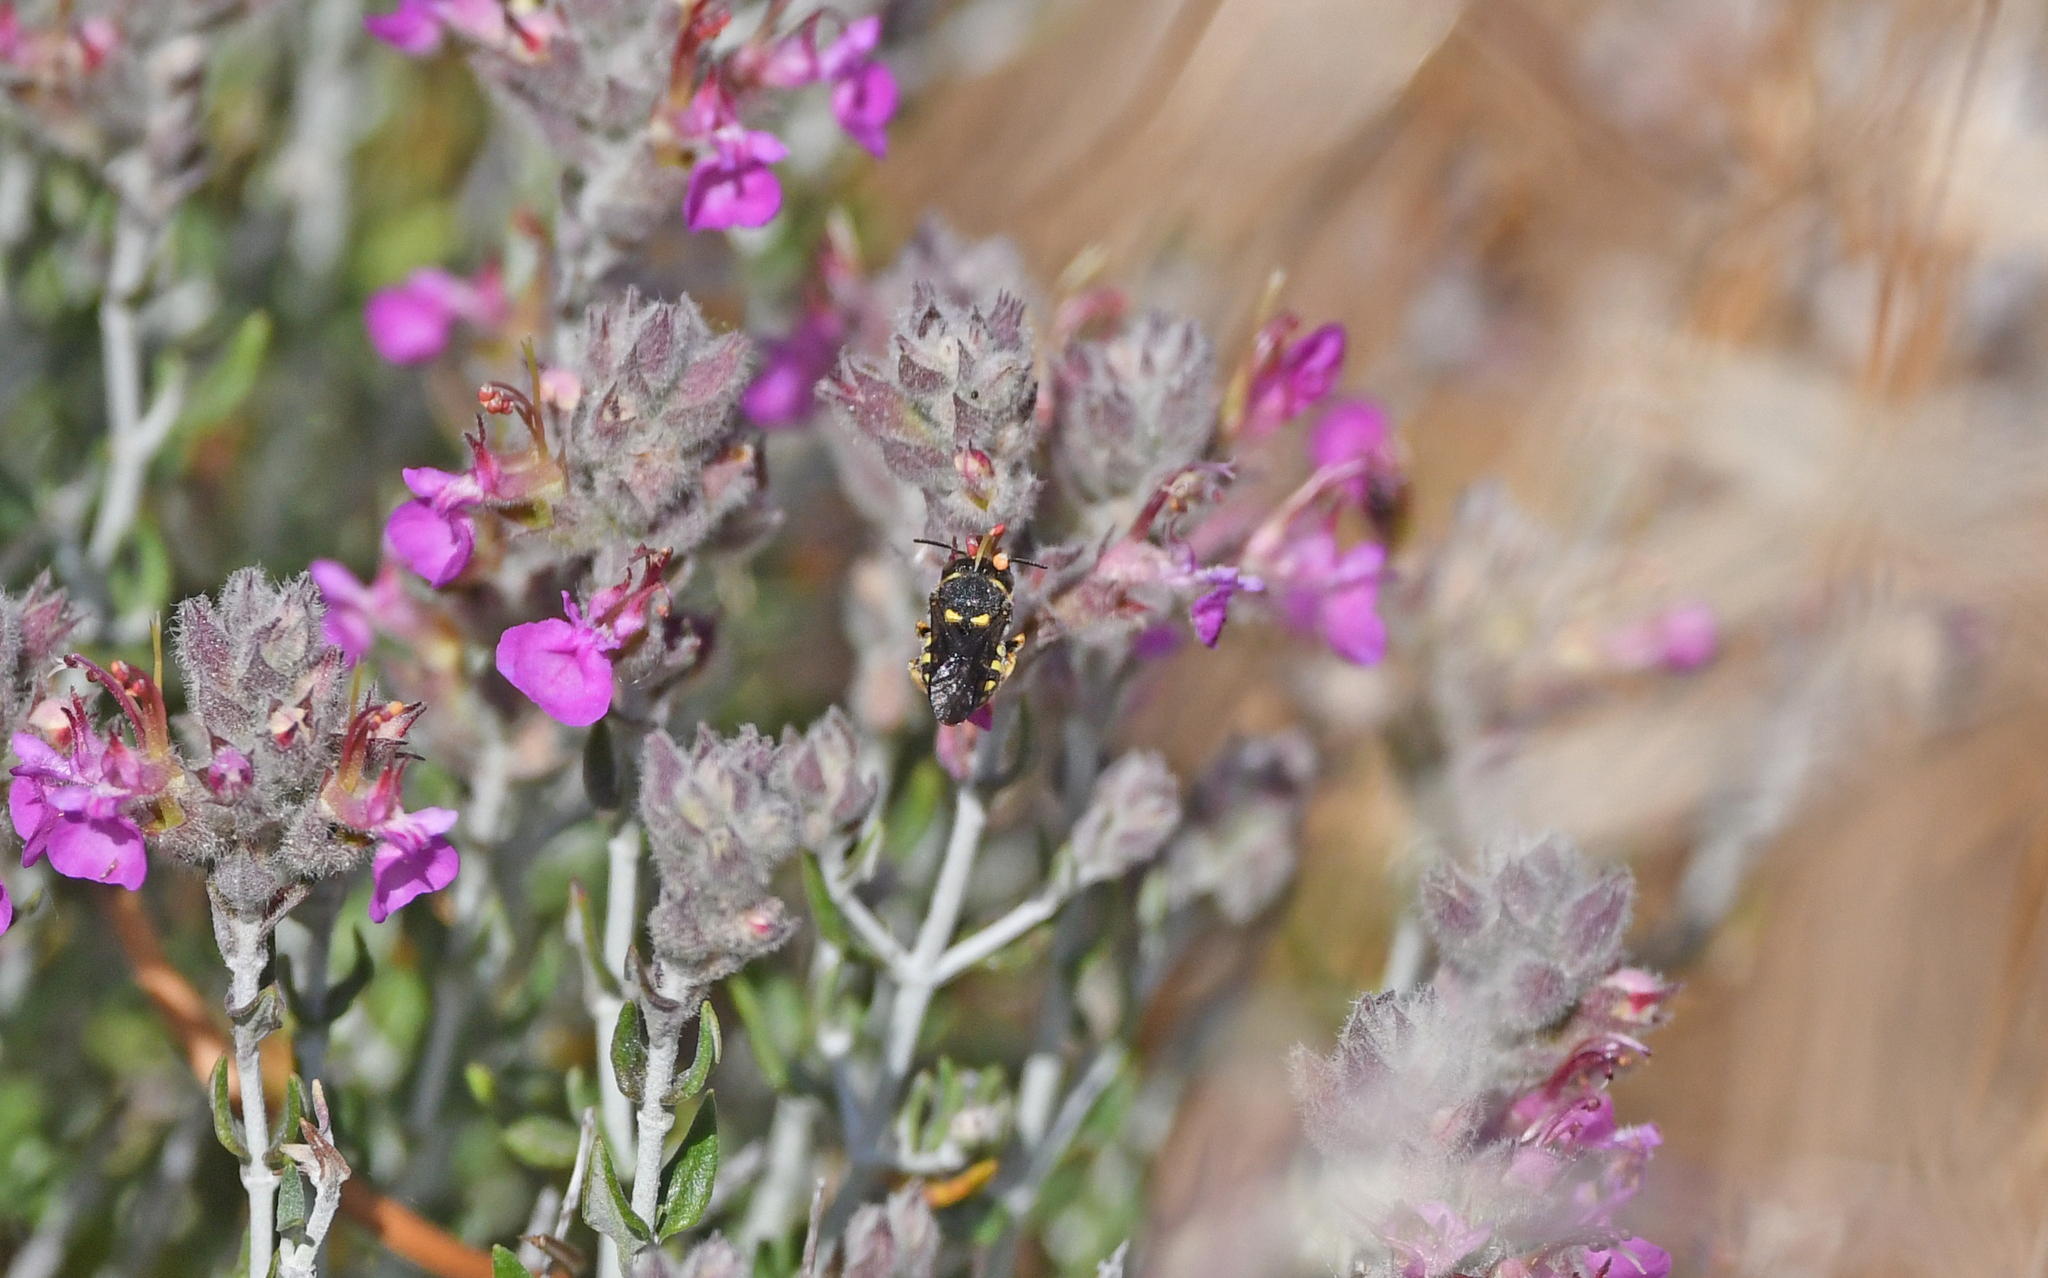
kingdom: Animalia
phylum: Arthropoda
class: Insecta
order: Hymenoptera
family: Megachilidae
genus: Anthidiellum
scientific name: Anthidiellum strigatum
